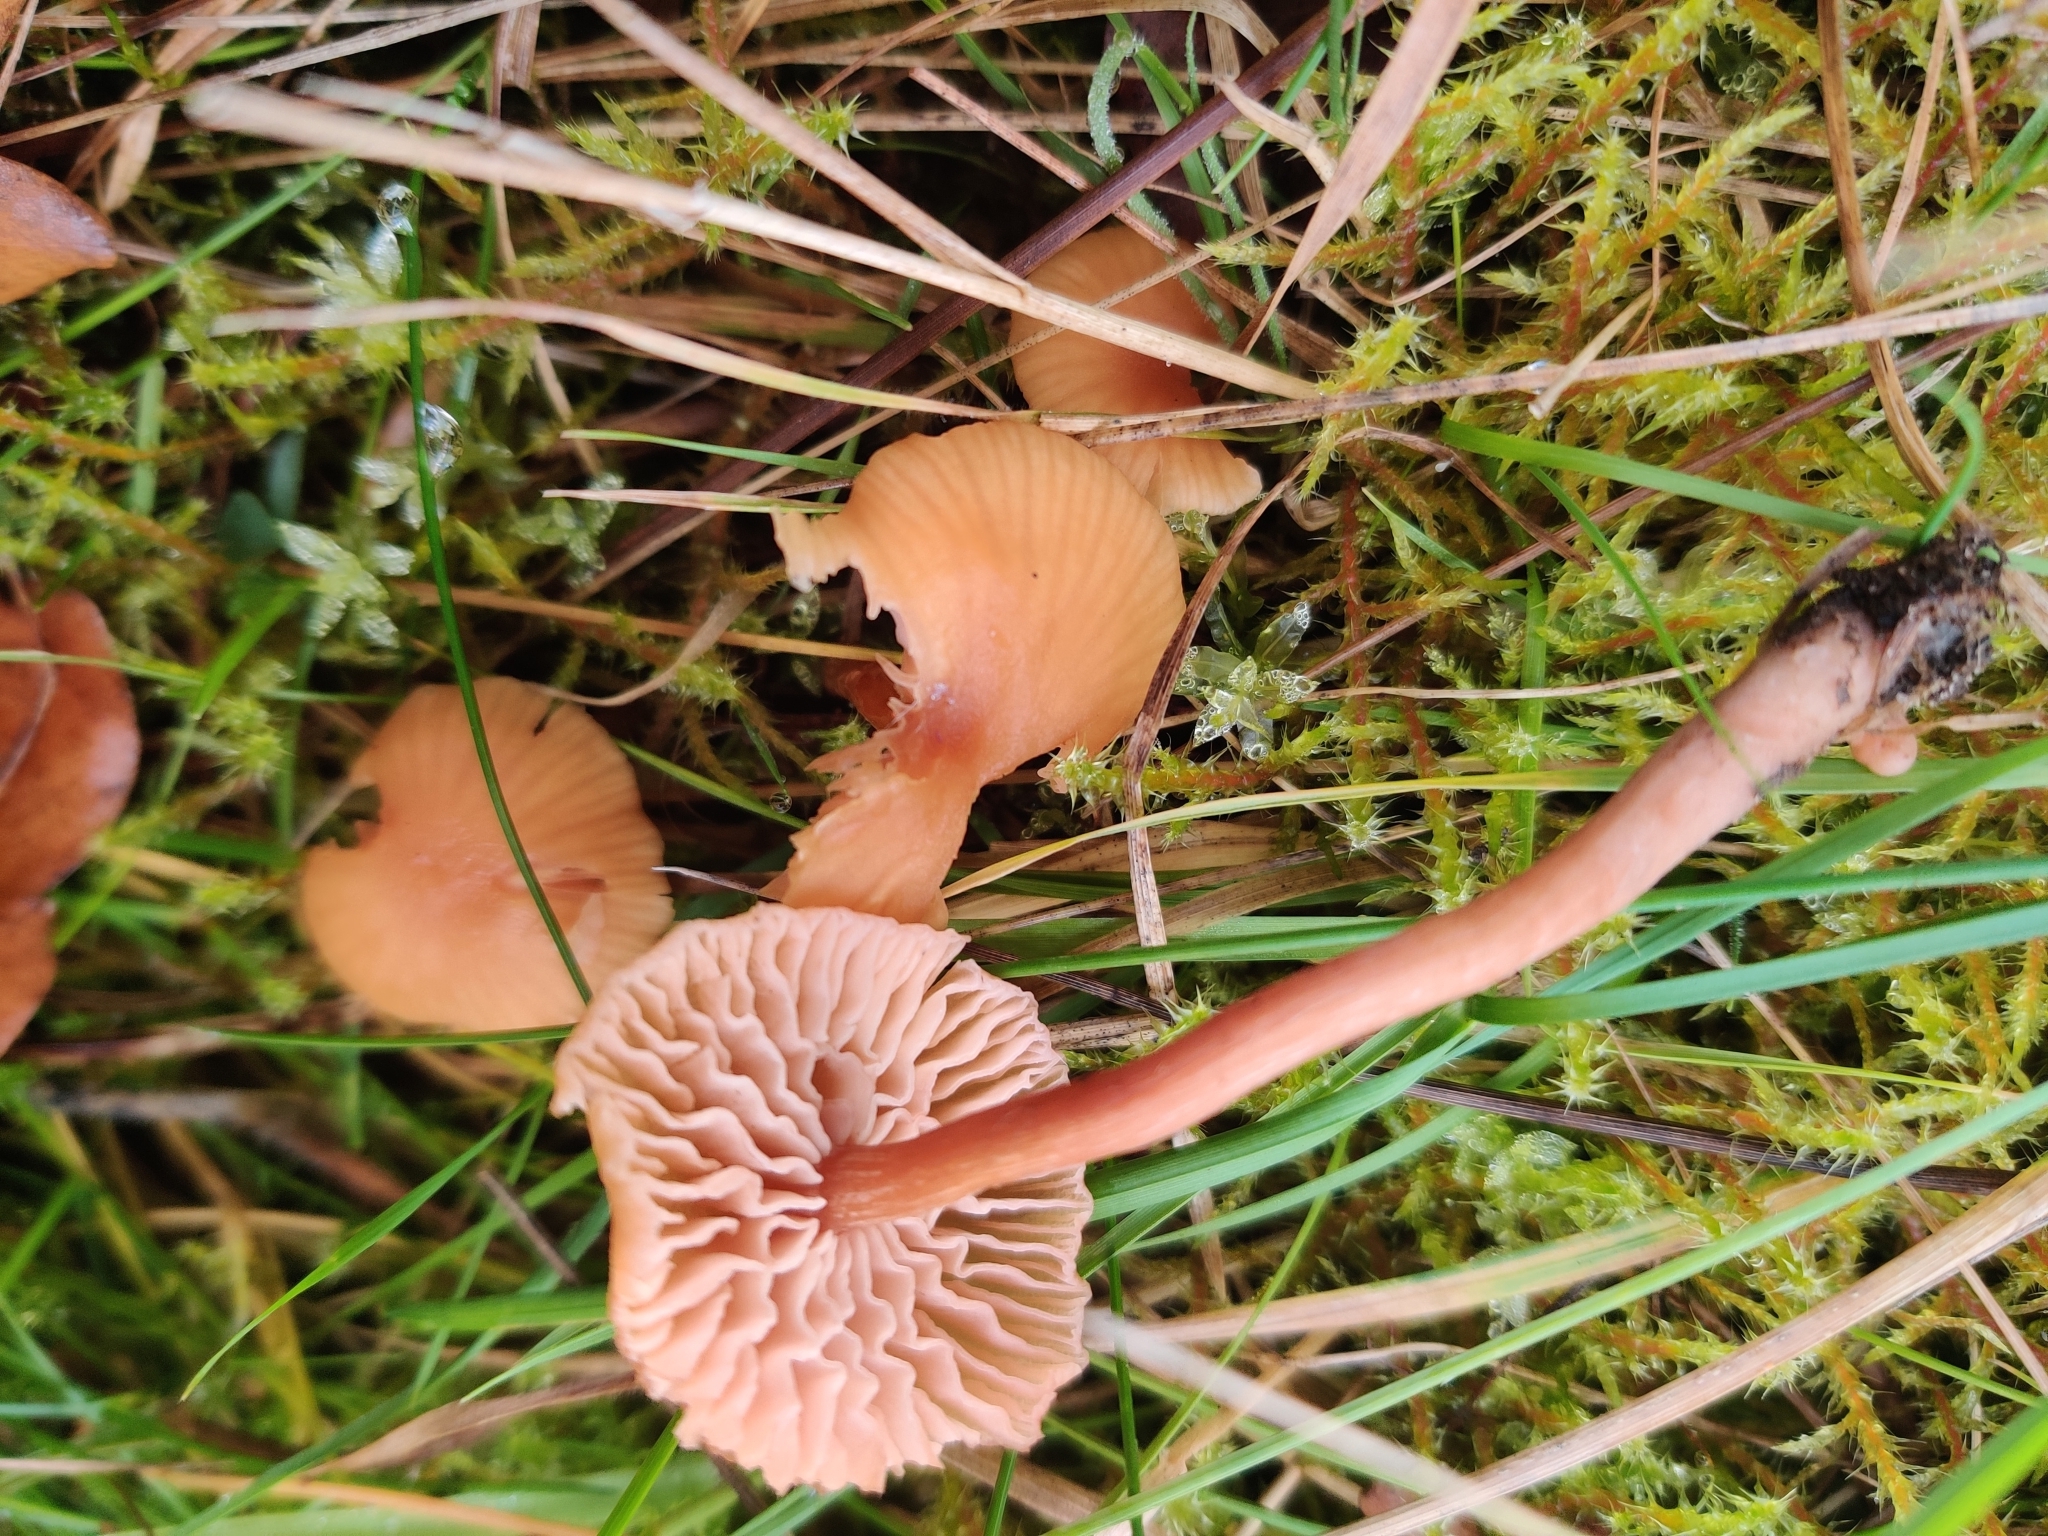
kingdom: Fungi
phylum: Basidiomycota
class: Agaricomycetes
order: Agaricales
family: Hydnangiaceae
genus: Laccaria
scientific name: Laccaria laccata
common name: Deceiver
